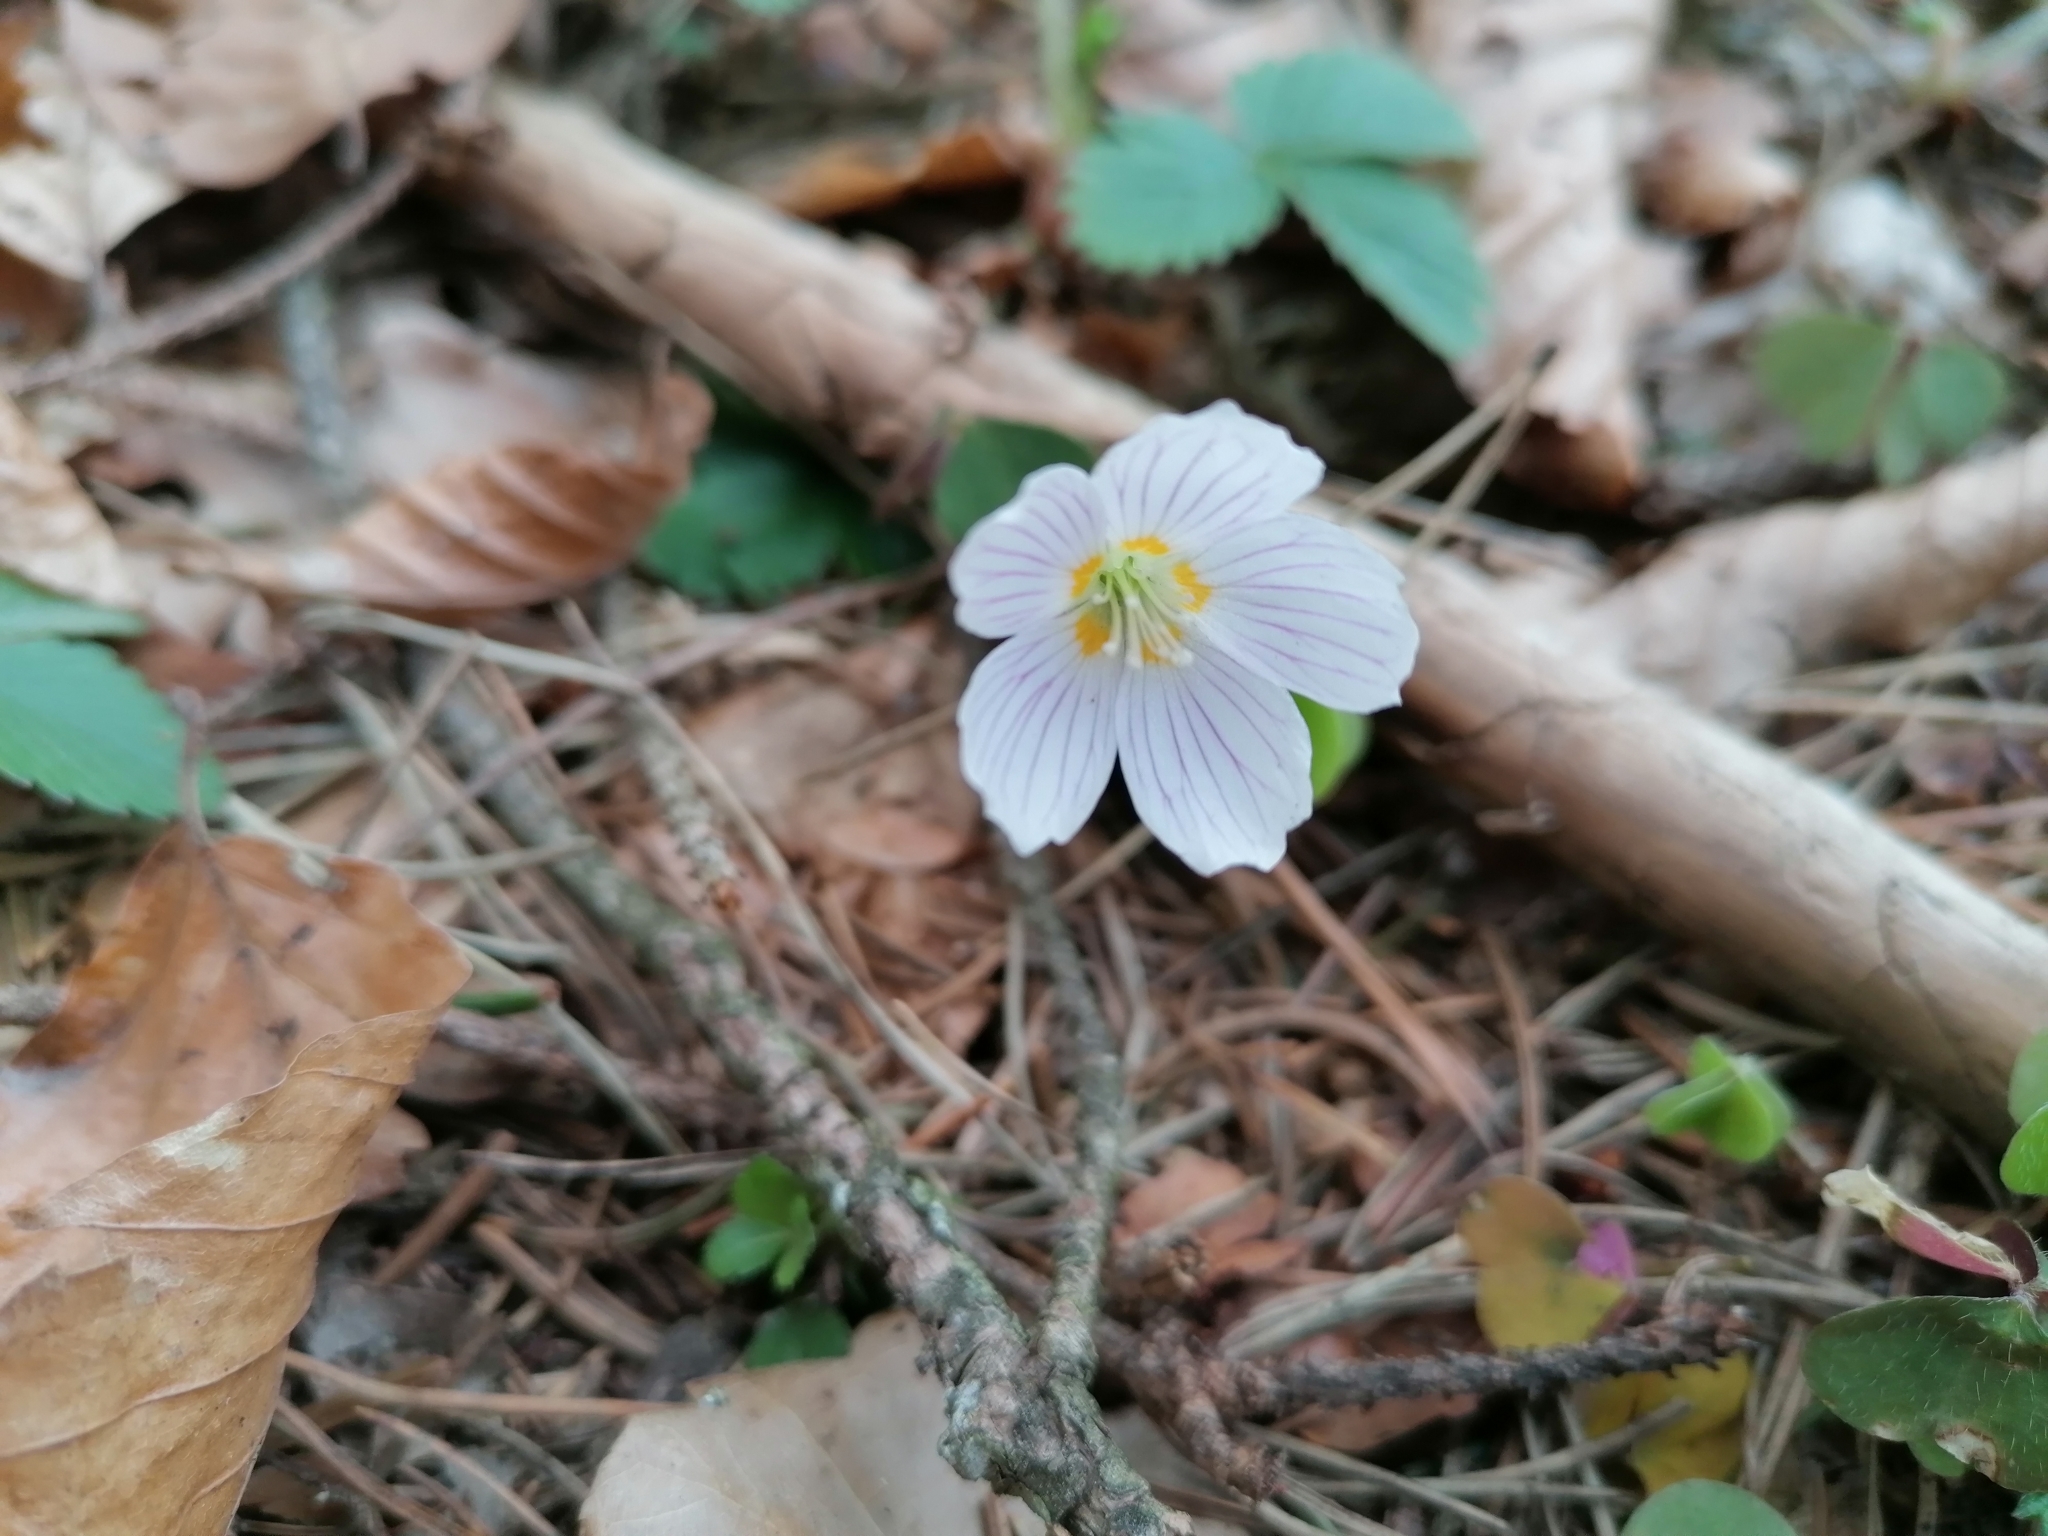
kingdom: Plantae
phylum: Tracheophyta
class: Magnoliopsida
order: Oxalidales
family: Oxalidaceae
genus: Oxalis
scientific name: Oxalis acetosella
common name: Wood-sorrel
